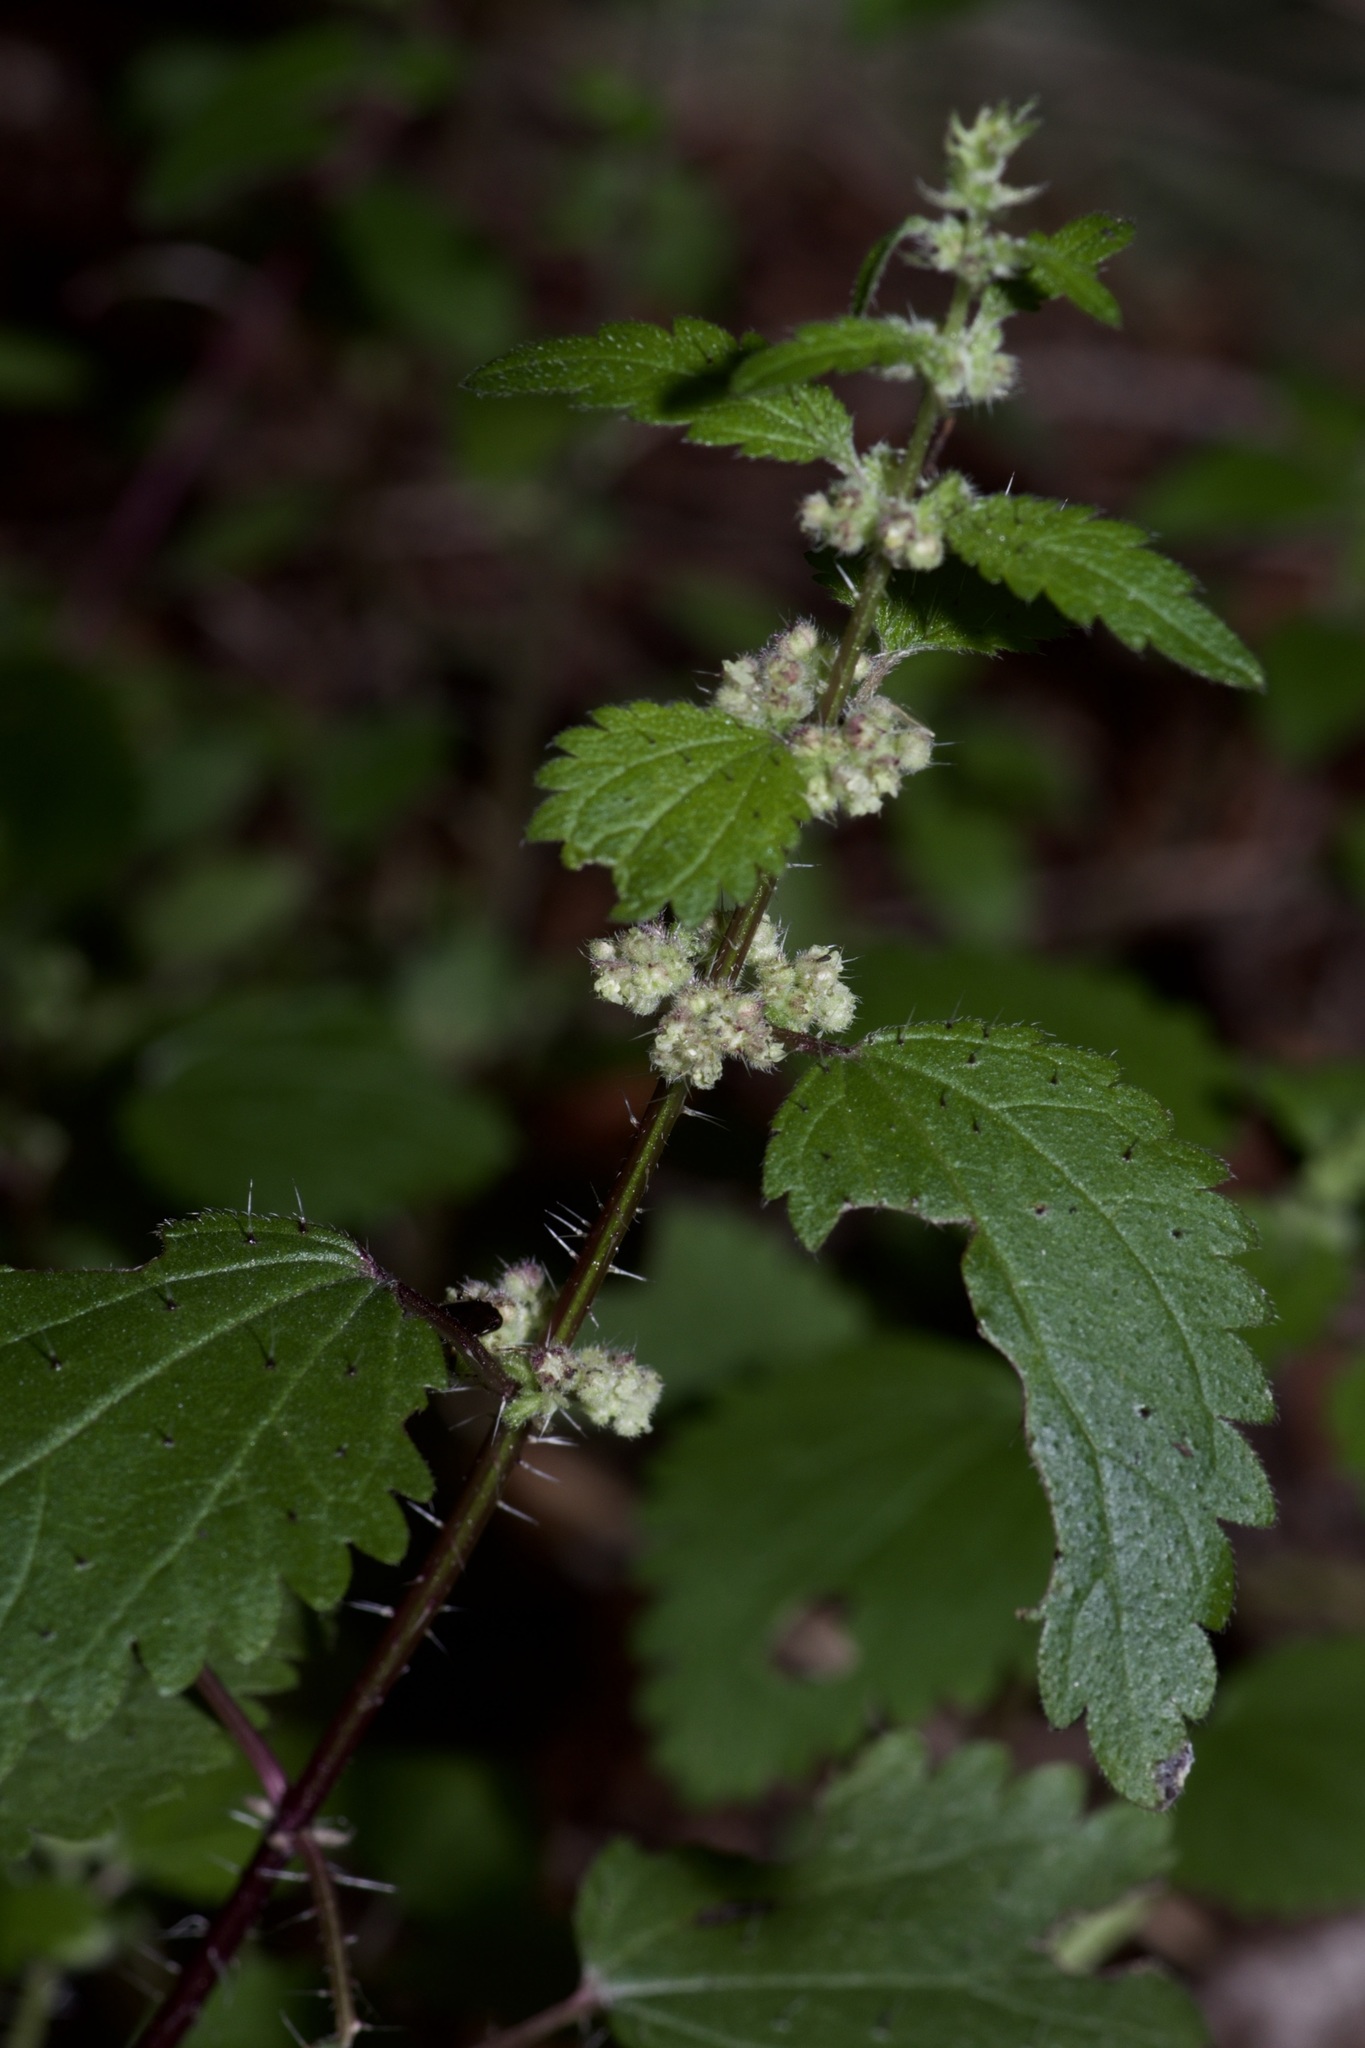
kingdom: Plantae
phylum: Tracheophyta
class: Magnoliopsida
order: Rosales
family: Urticaceae
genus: Urtica
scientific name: Urtica chamaedryoides
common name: Heart-leaf nettle
